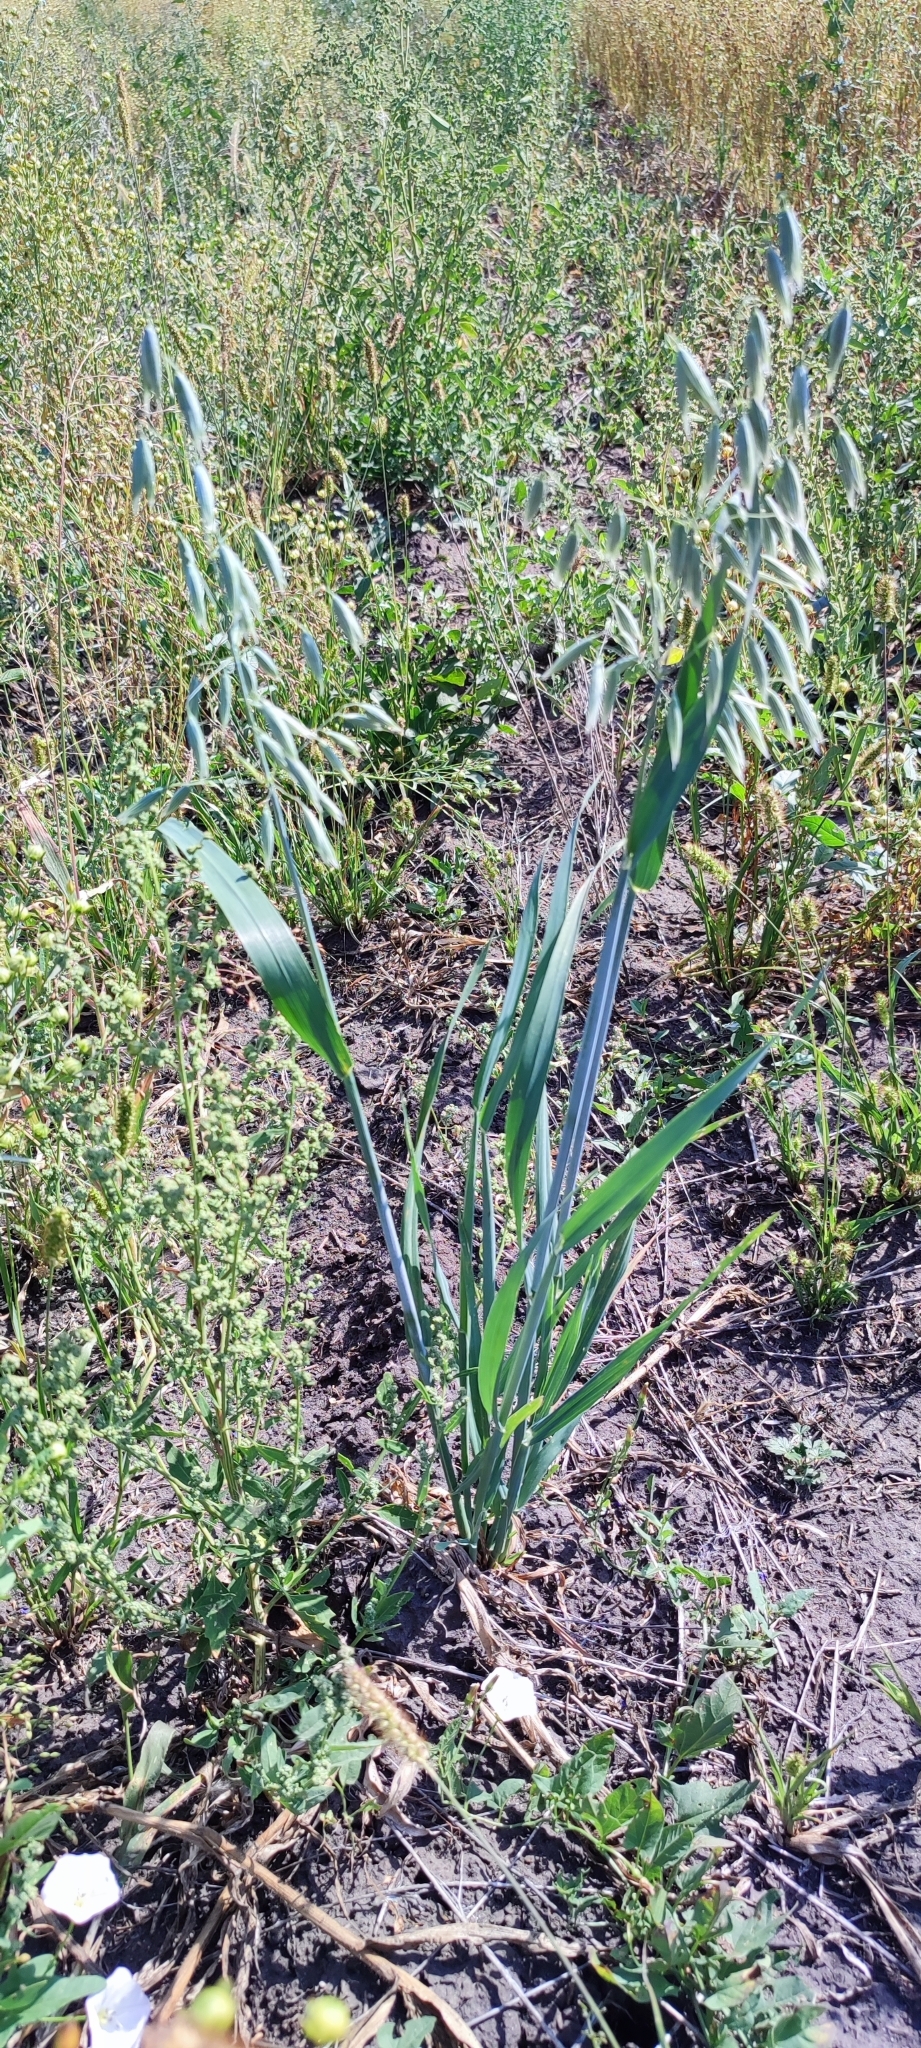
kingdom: Plantae
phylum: Tracheophyta
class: Liliopsida
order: Poales
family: Poaceae
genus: Avena
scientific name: Avena sativa
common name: Oat
